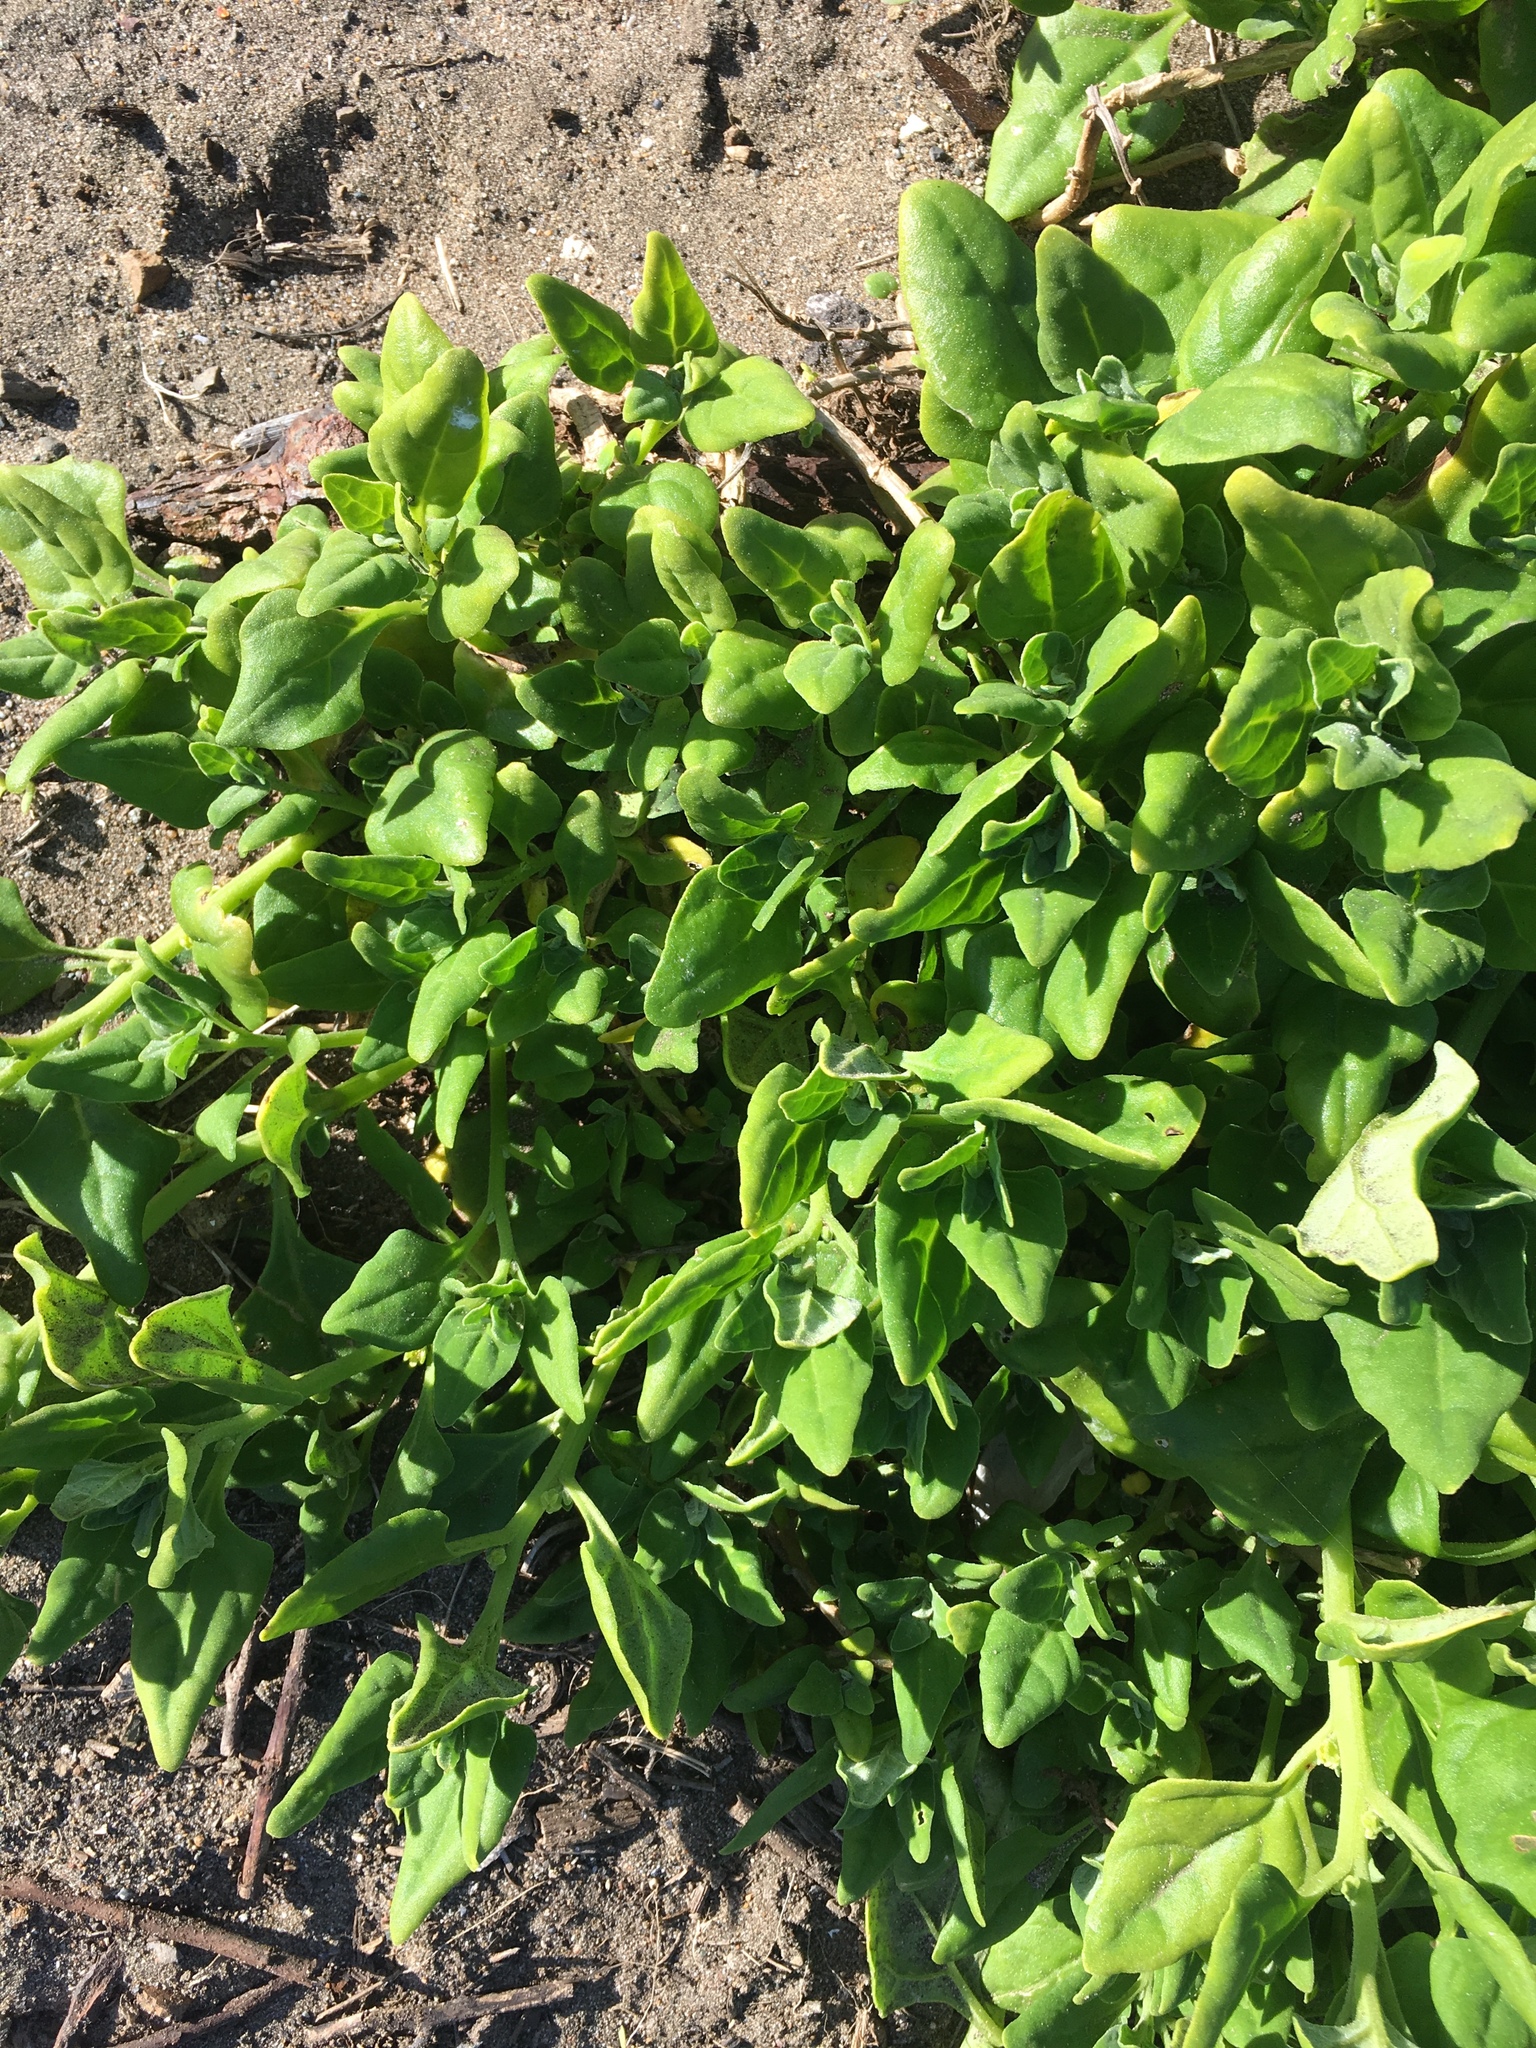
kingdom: Plantae
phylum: Tracheophyta
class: Magnoliopsida
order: Caryophyllales
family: Aizoaceae
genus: Tetragonia
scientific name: Tetragonia tetragonoides
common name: New zealand-spinach
